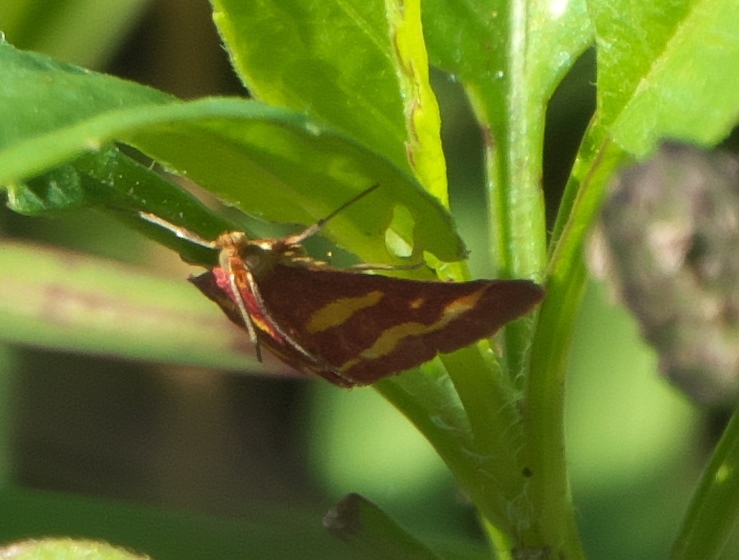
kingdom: Animalia
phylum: Arthropoda
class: Insecta
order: Lepidoptera
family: Crambidae
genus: Pyrausta
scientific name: Pyrausta tyralis
